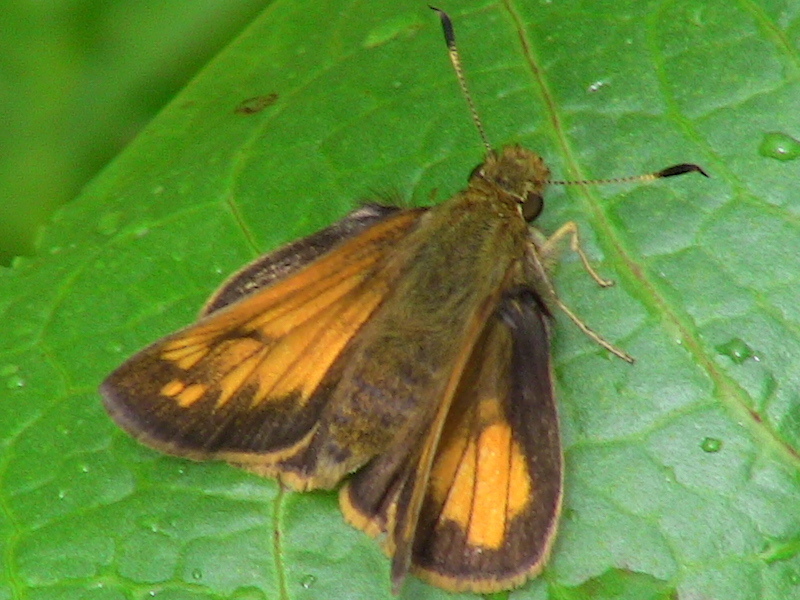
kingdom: Animalia
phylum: Arthropoda
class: Insecta
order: Lepidoptera
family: Hesperiidae
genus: Lon
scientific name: Lon hobomok
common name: Hobomok skipper
